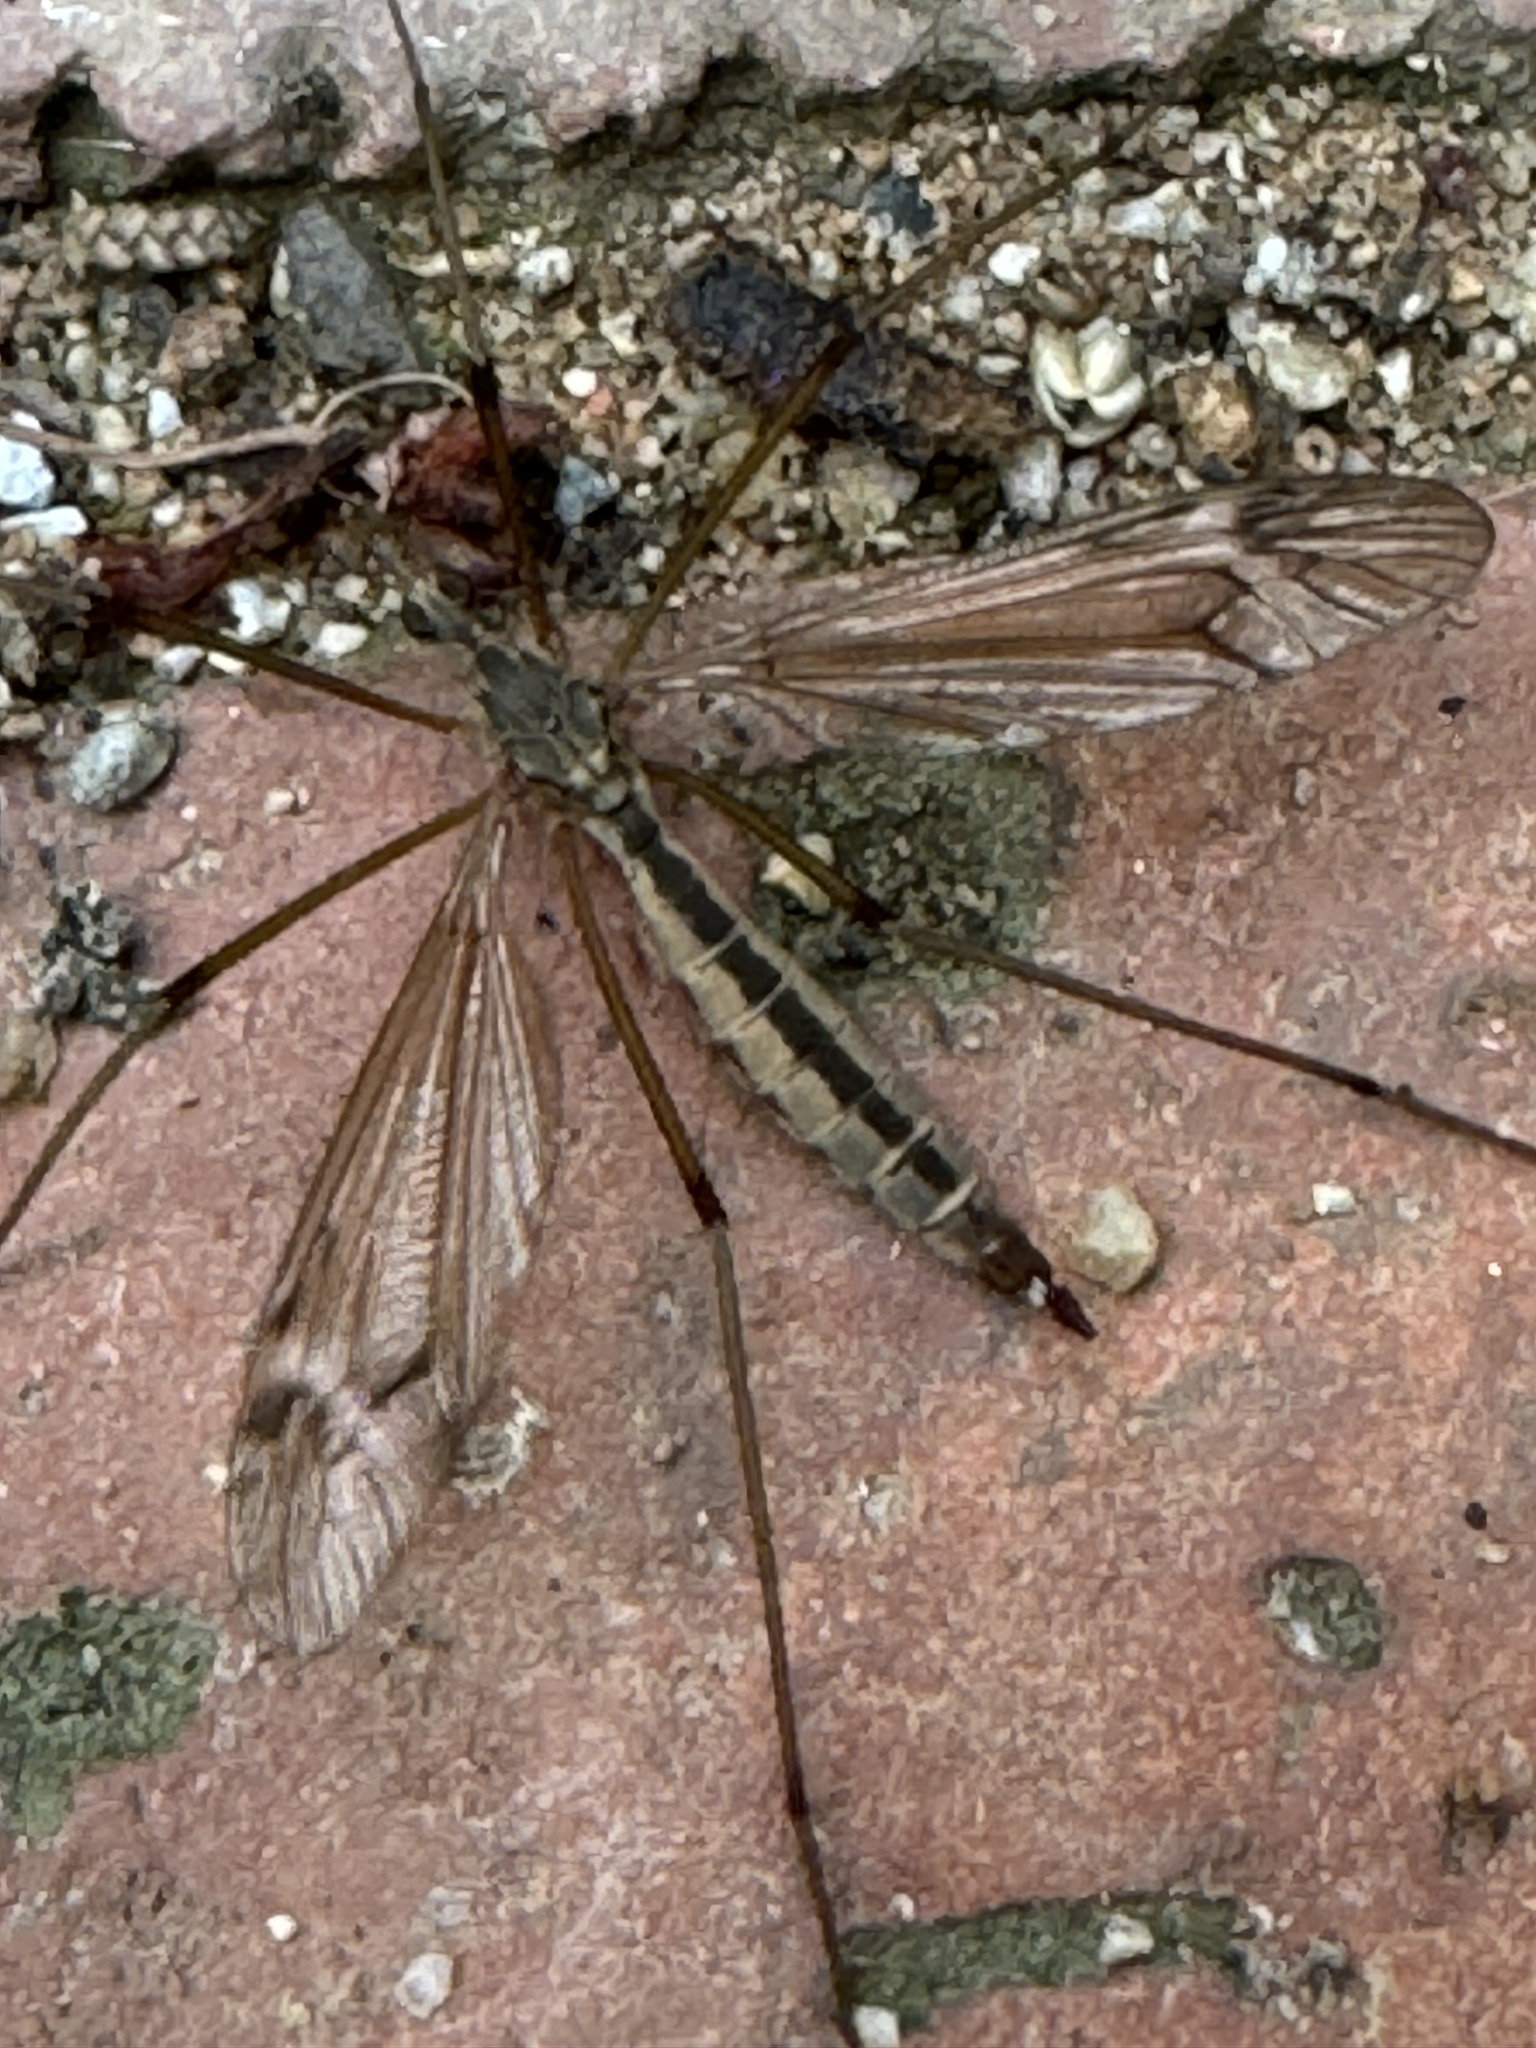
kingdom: Animalia
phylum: Arthropoda
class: Insecta
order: Diptera
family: Tipulidae
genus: Tipula
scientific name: Tipula paludosa
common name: European cranefly
